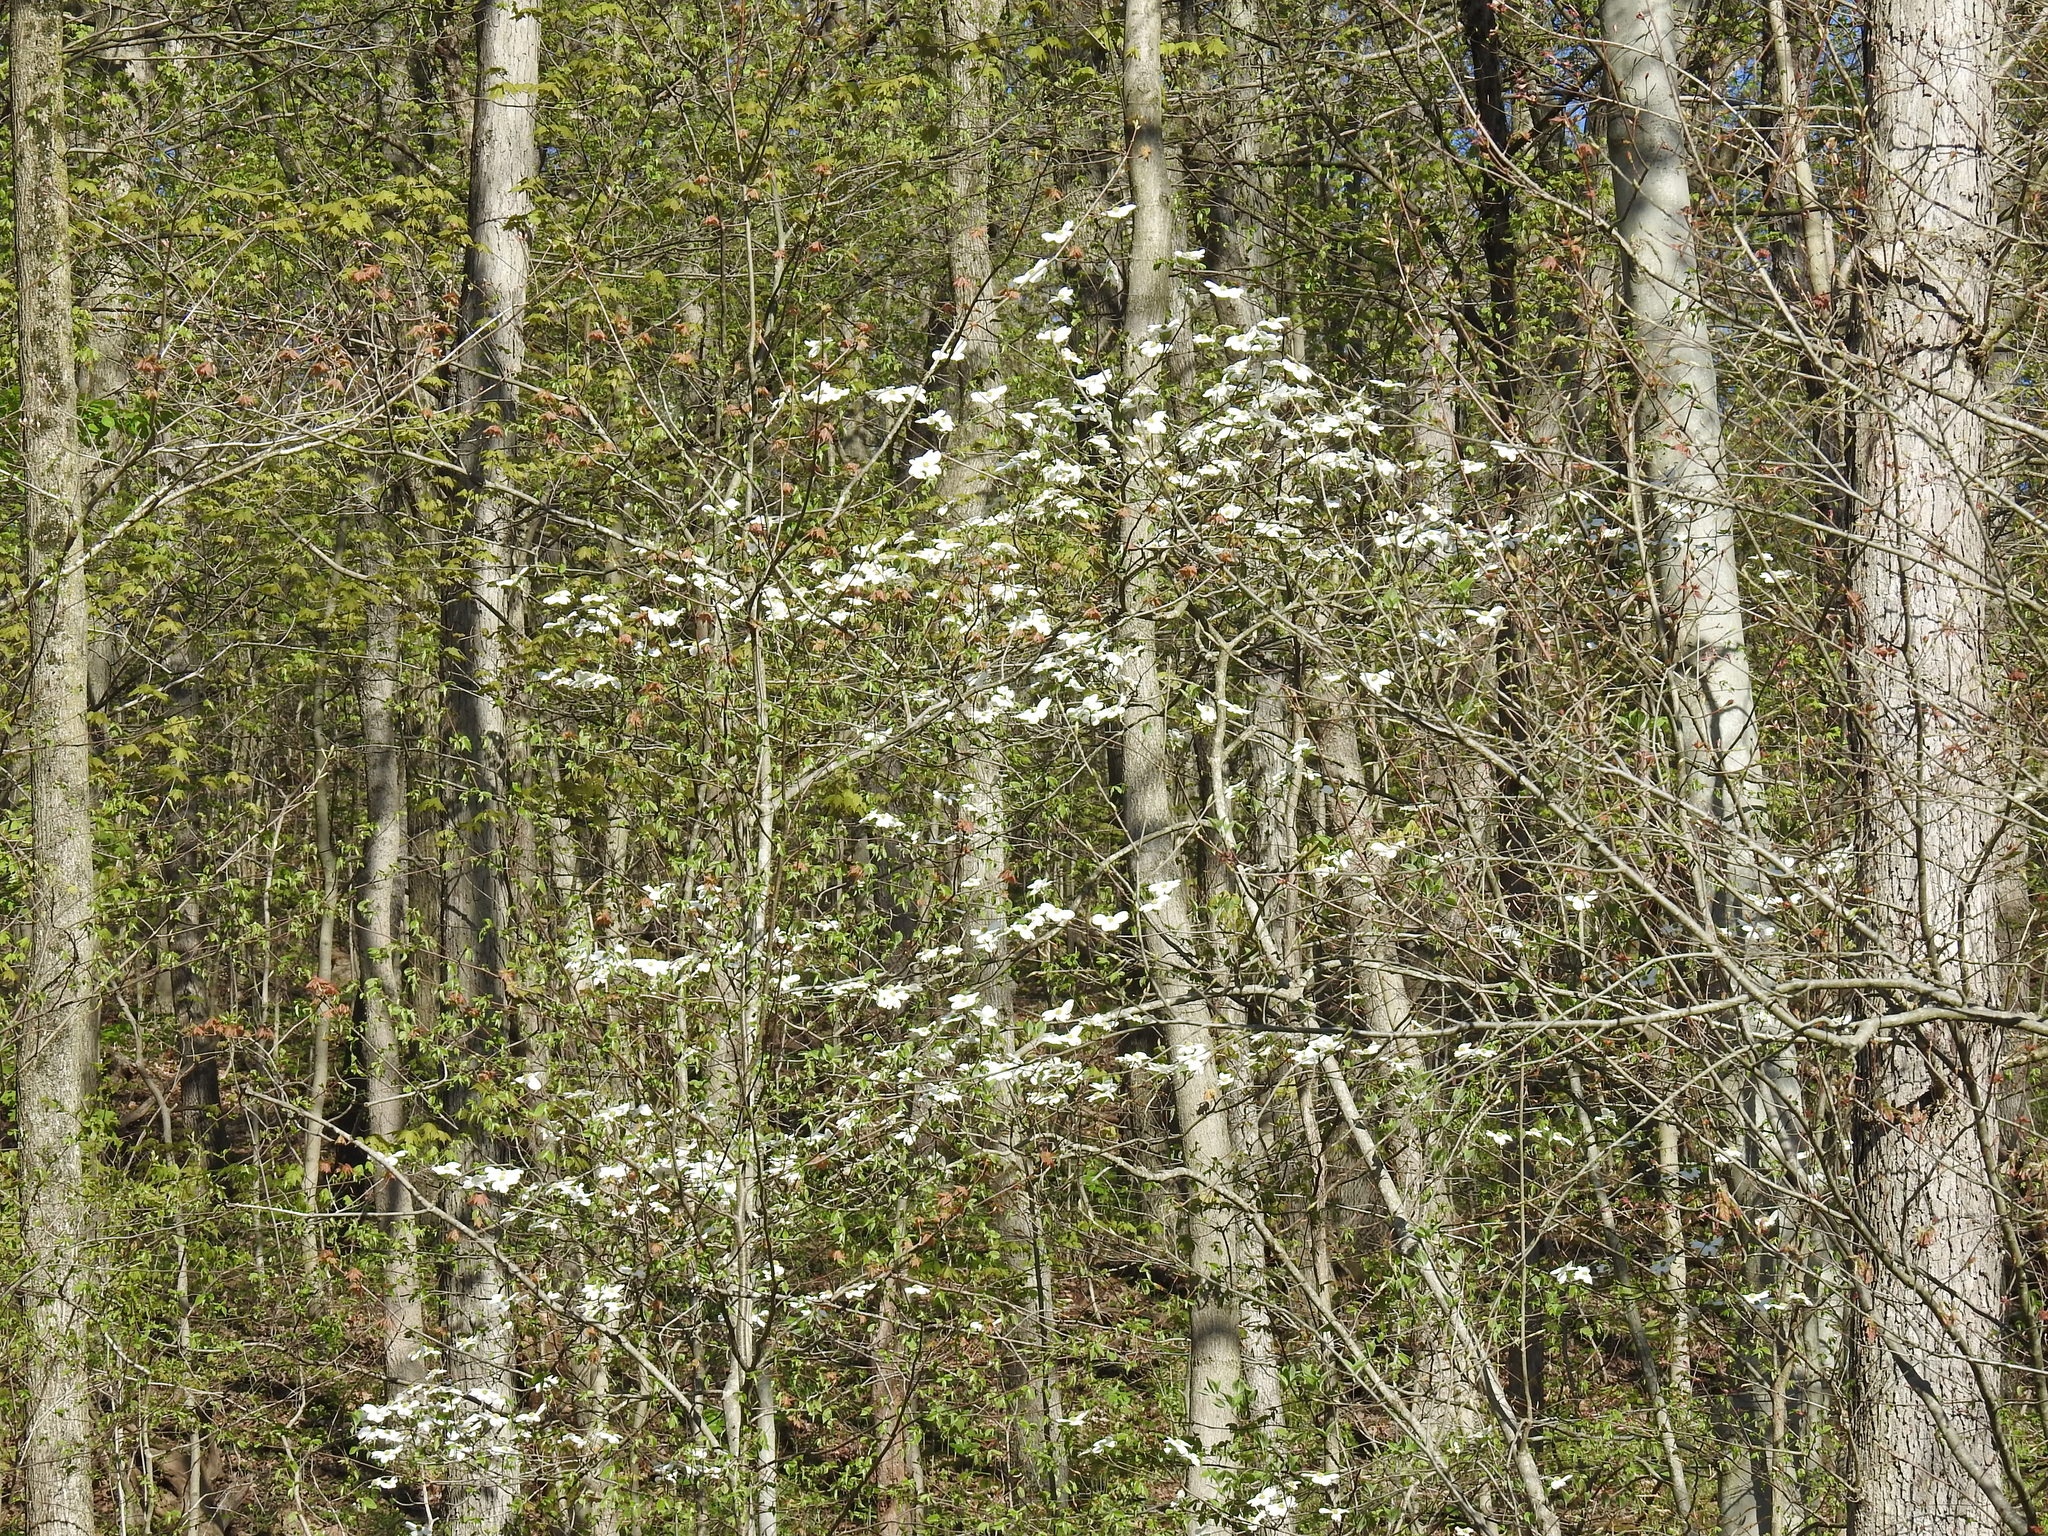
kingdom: Plantae
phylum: Tracheophyta
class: Magnoliopsida
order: Cornales
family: Cornaceae
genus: Cornus
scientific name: Cornus florida
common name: Flowering dogwood
